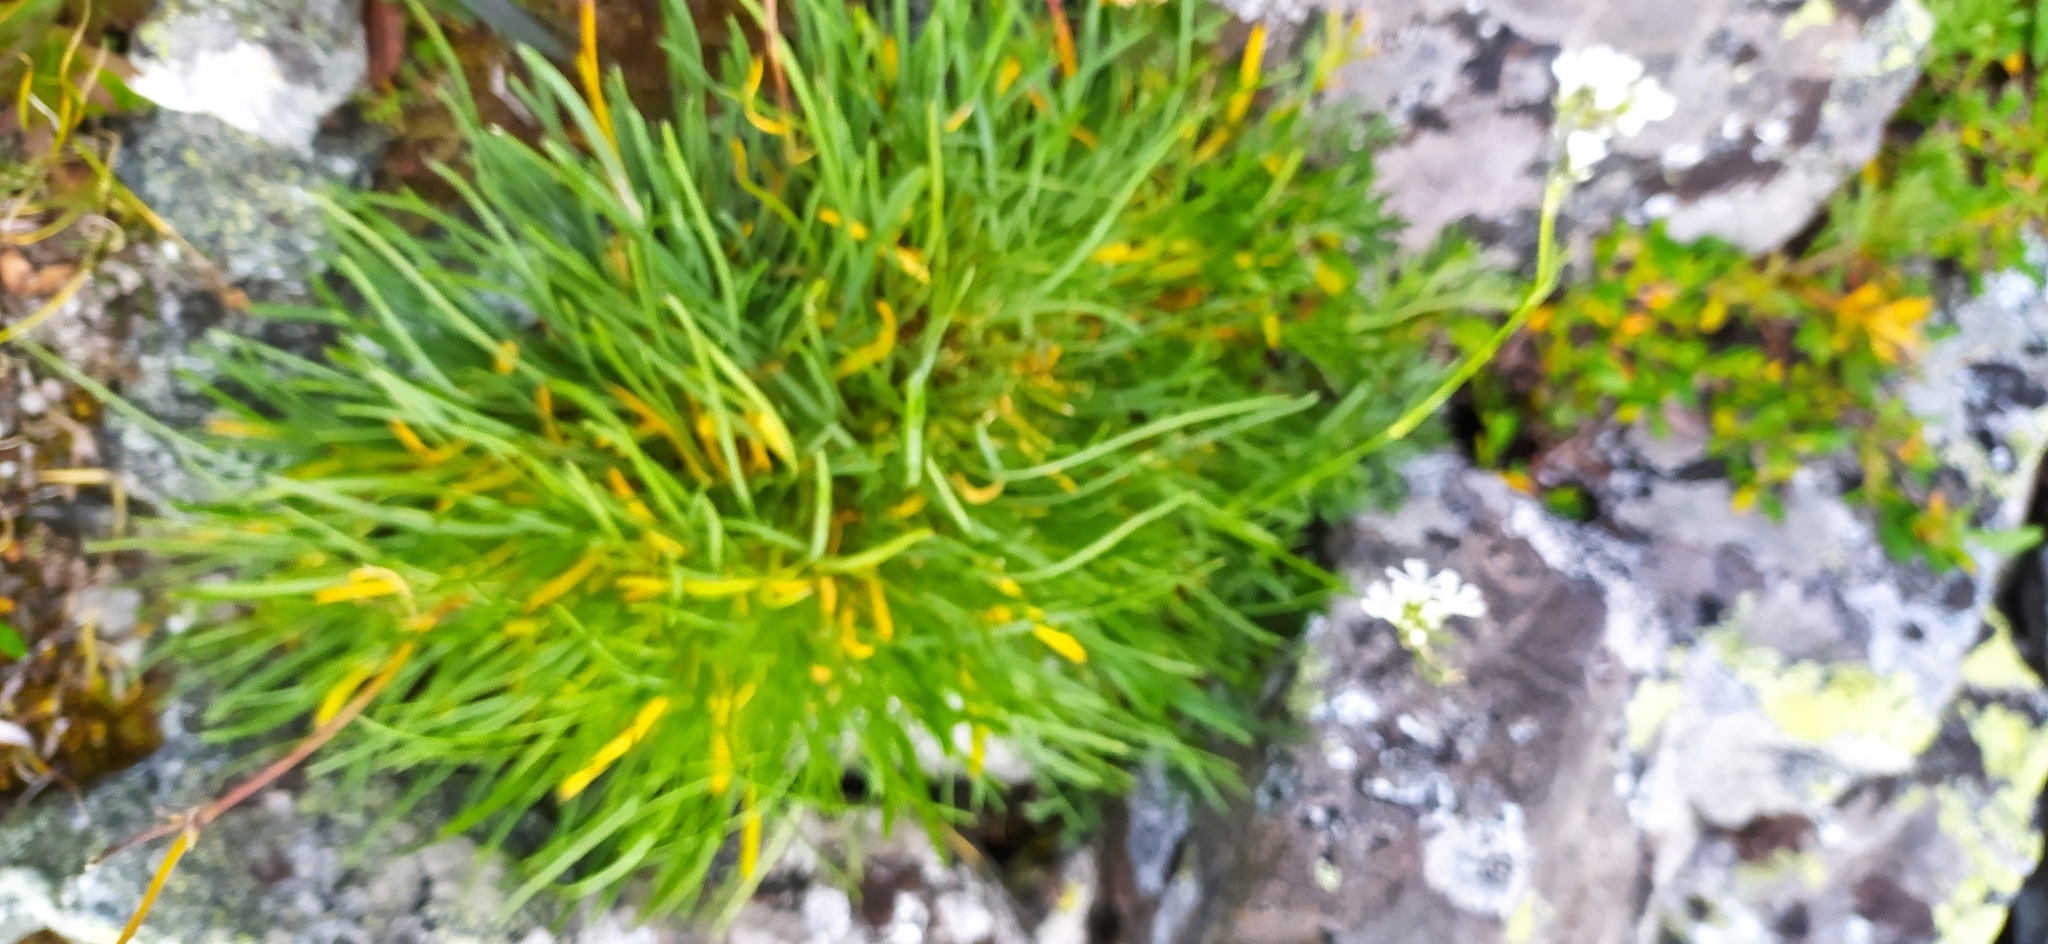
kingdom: Plantae
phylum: Tracheophyta
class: Magnoliopsida
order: Caryophyllales
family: Caryophyllaceae
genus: Gypsophila
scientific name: Gypsophila uralensis
